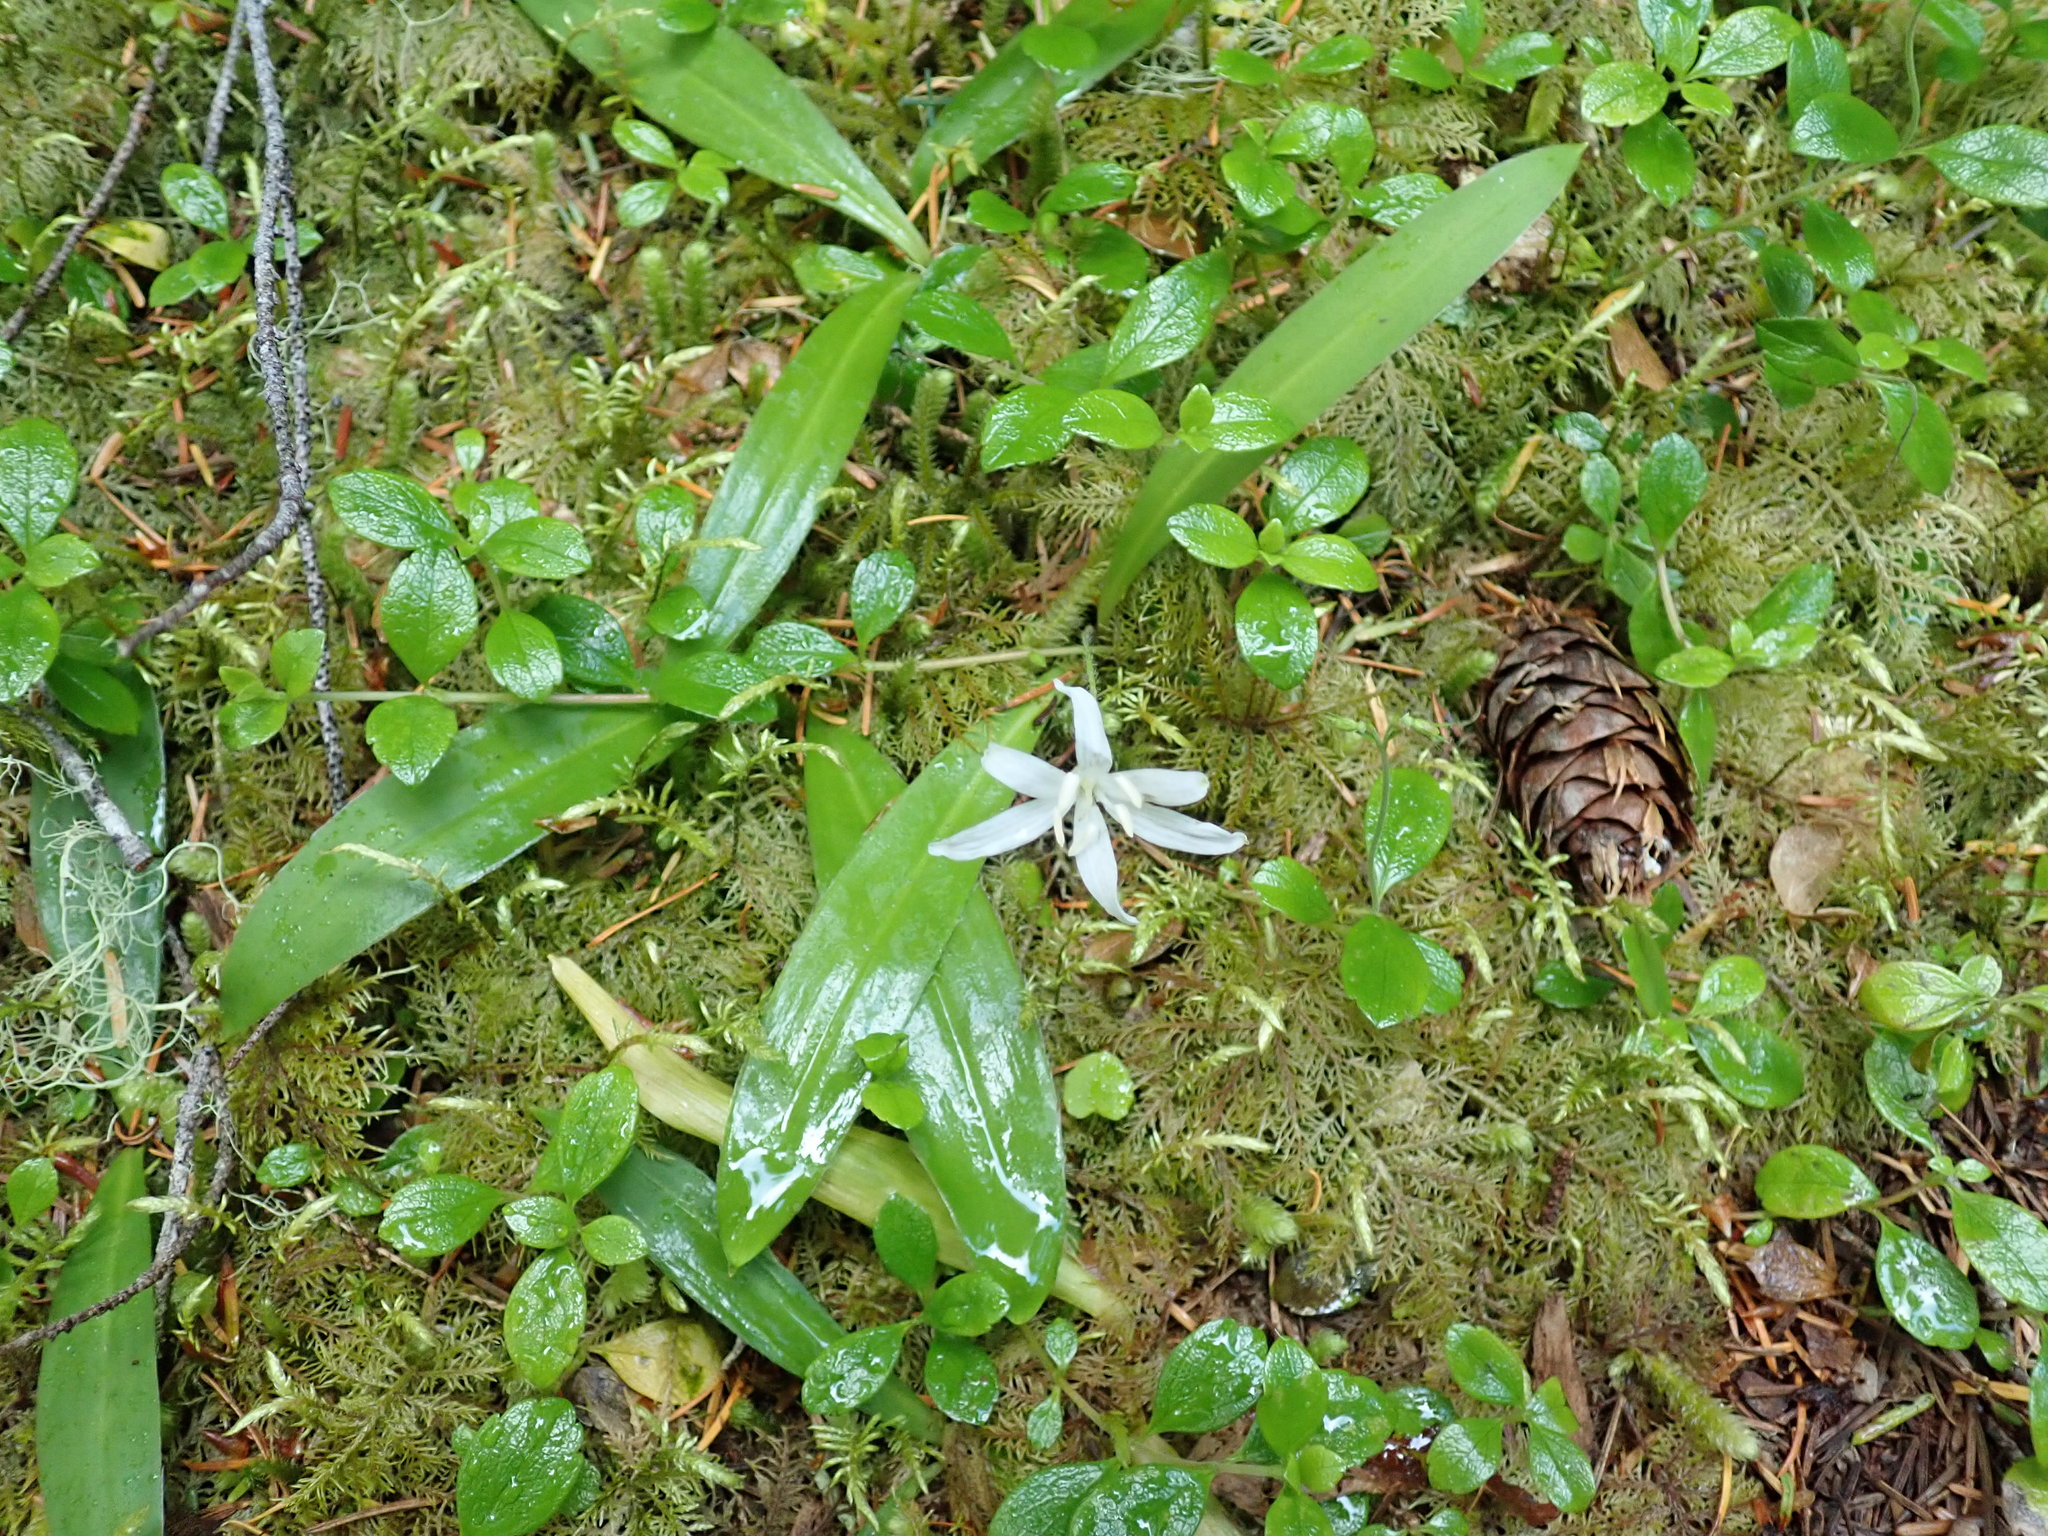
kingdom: Plantae
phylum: Tracheophyta
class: Liliopsida
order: Liliales
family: Liliaceae
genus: Clintonia
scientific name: Clintonia uniflora
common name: Queen's cup
